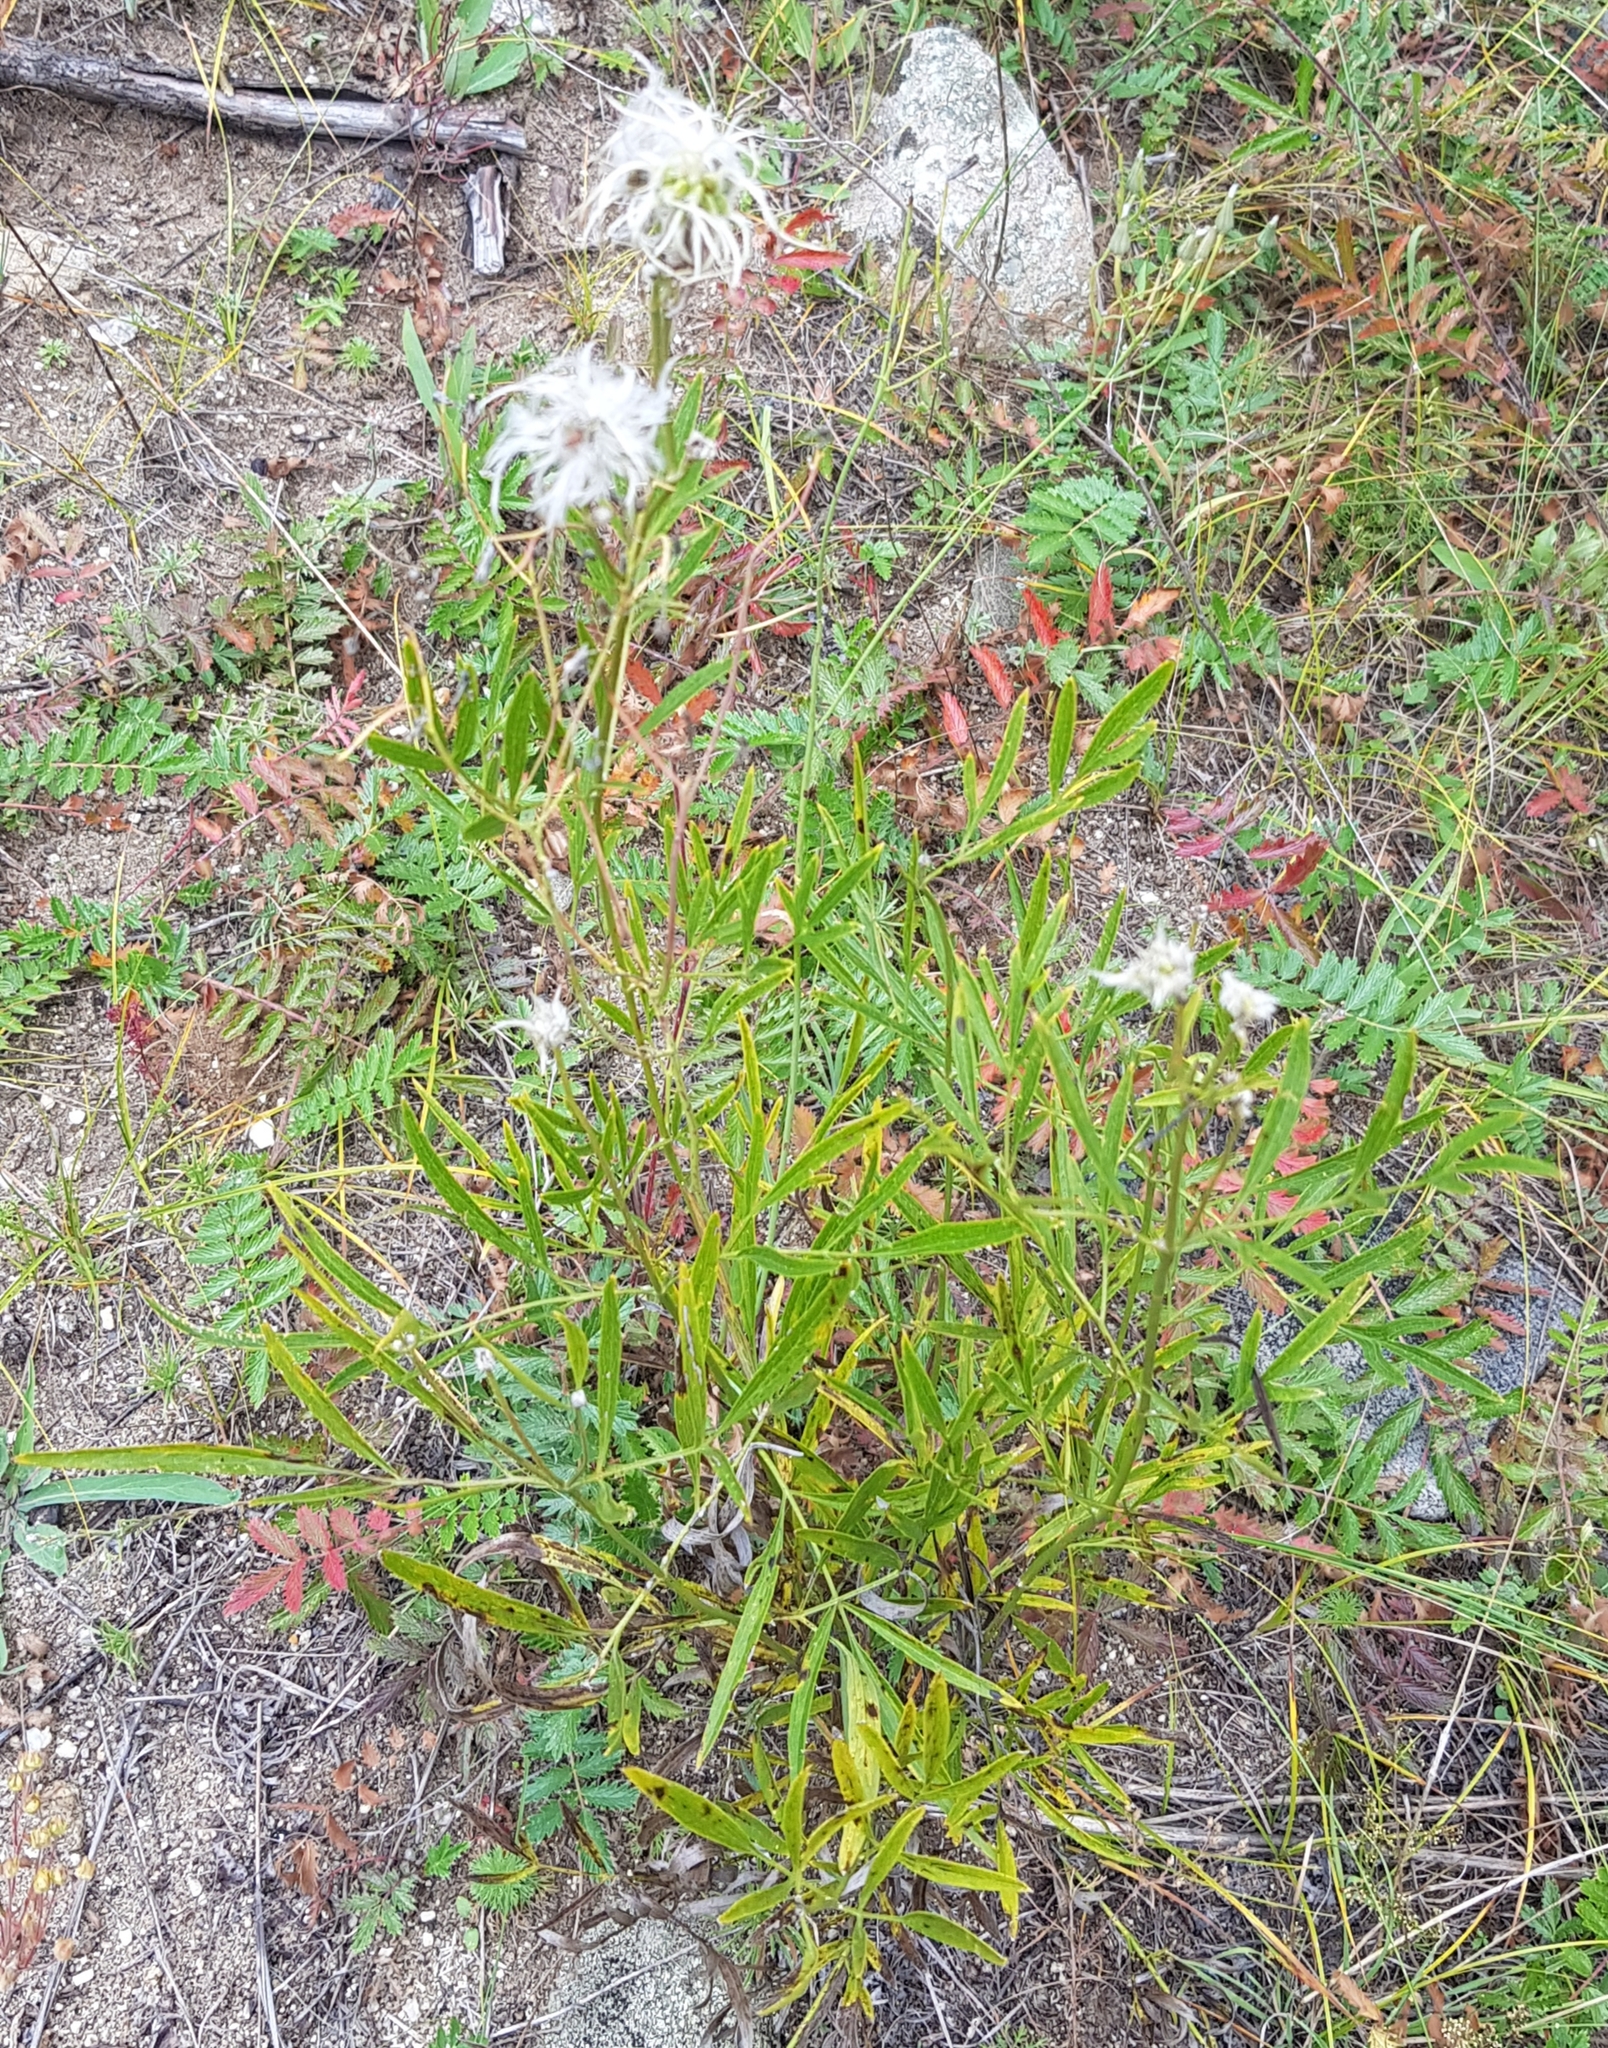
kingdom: Plantae
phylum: Tracheophyta
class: Magnoliopsida
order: Ranunculales
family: Ranunculaceae
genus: Clematis
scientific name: Clematis hexapetala
